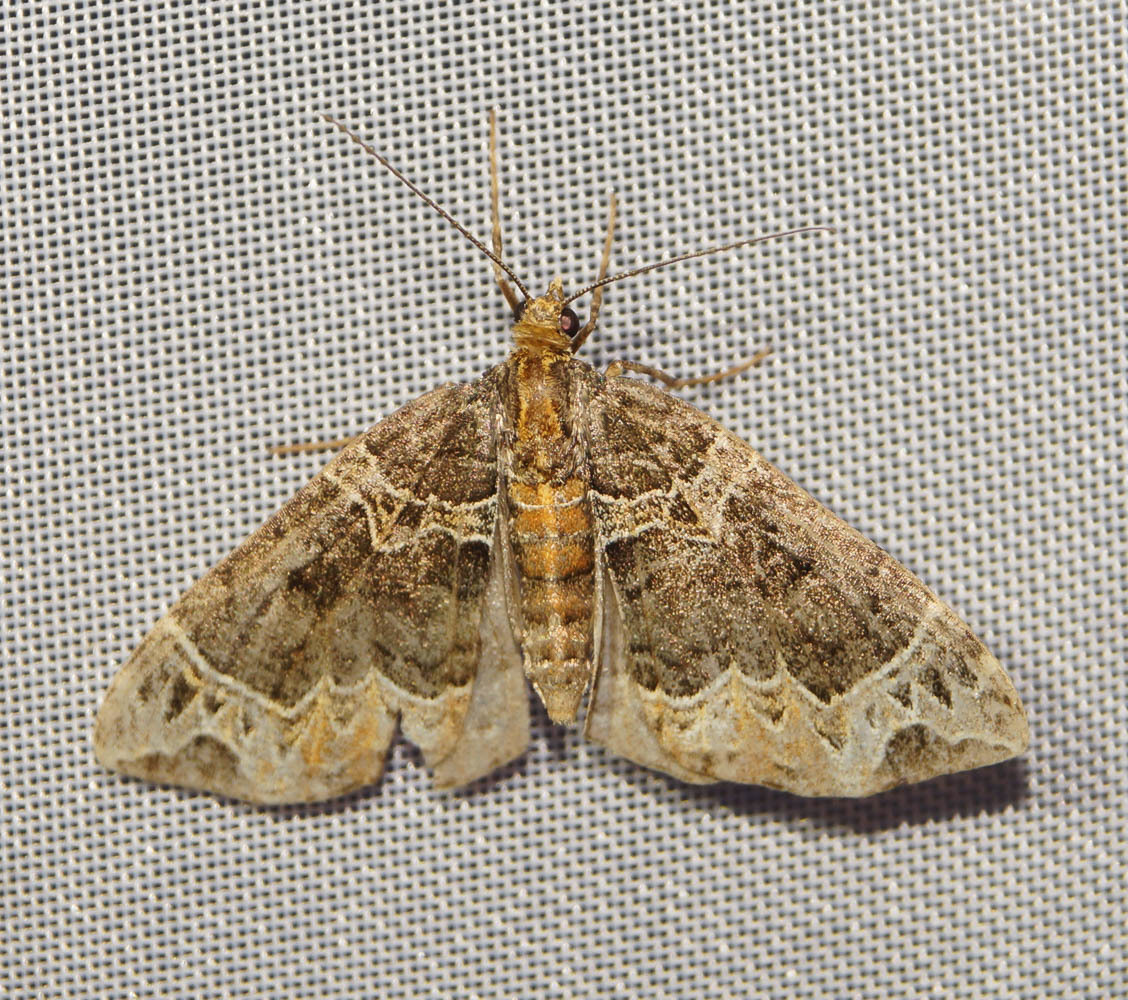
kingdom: Animalia
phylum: Arthropoda
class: Insecta
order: Lepidoptera
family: Geometridae
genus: Ecliptopera
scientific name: Ecliptopera silaceata
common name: Small phoenix
